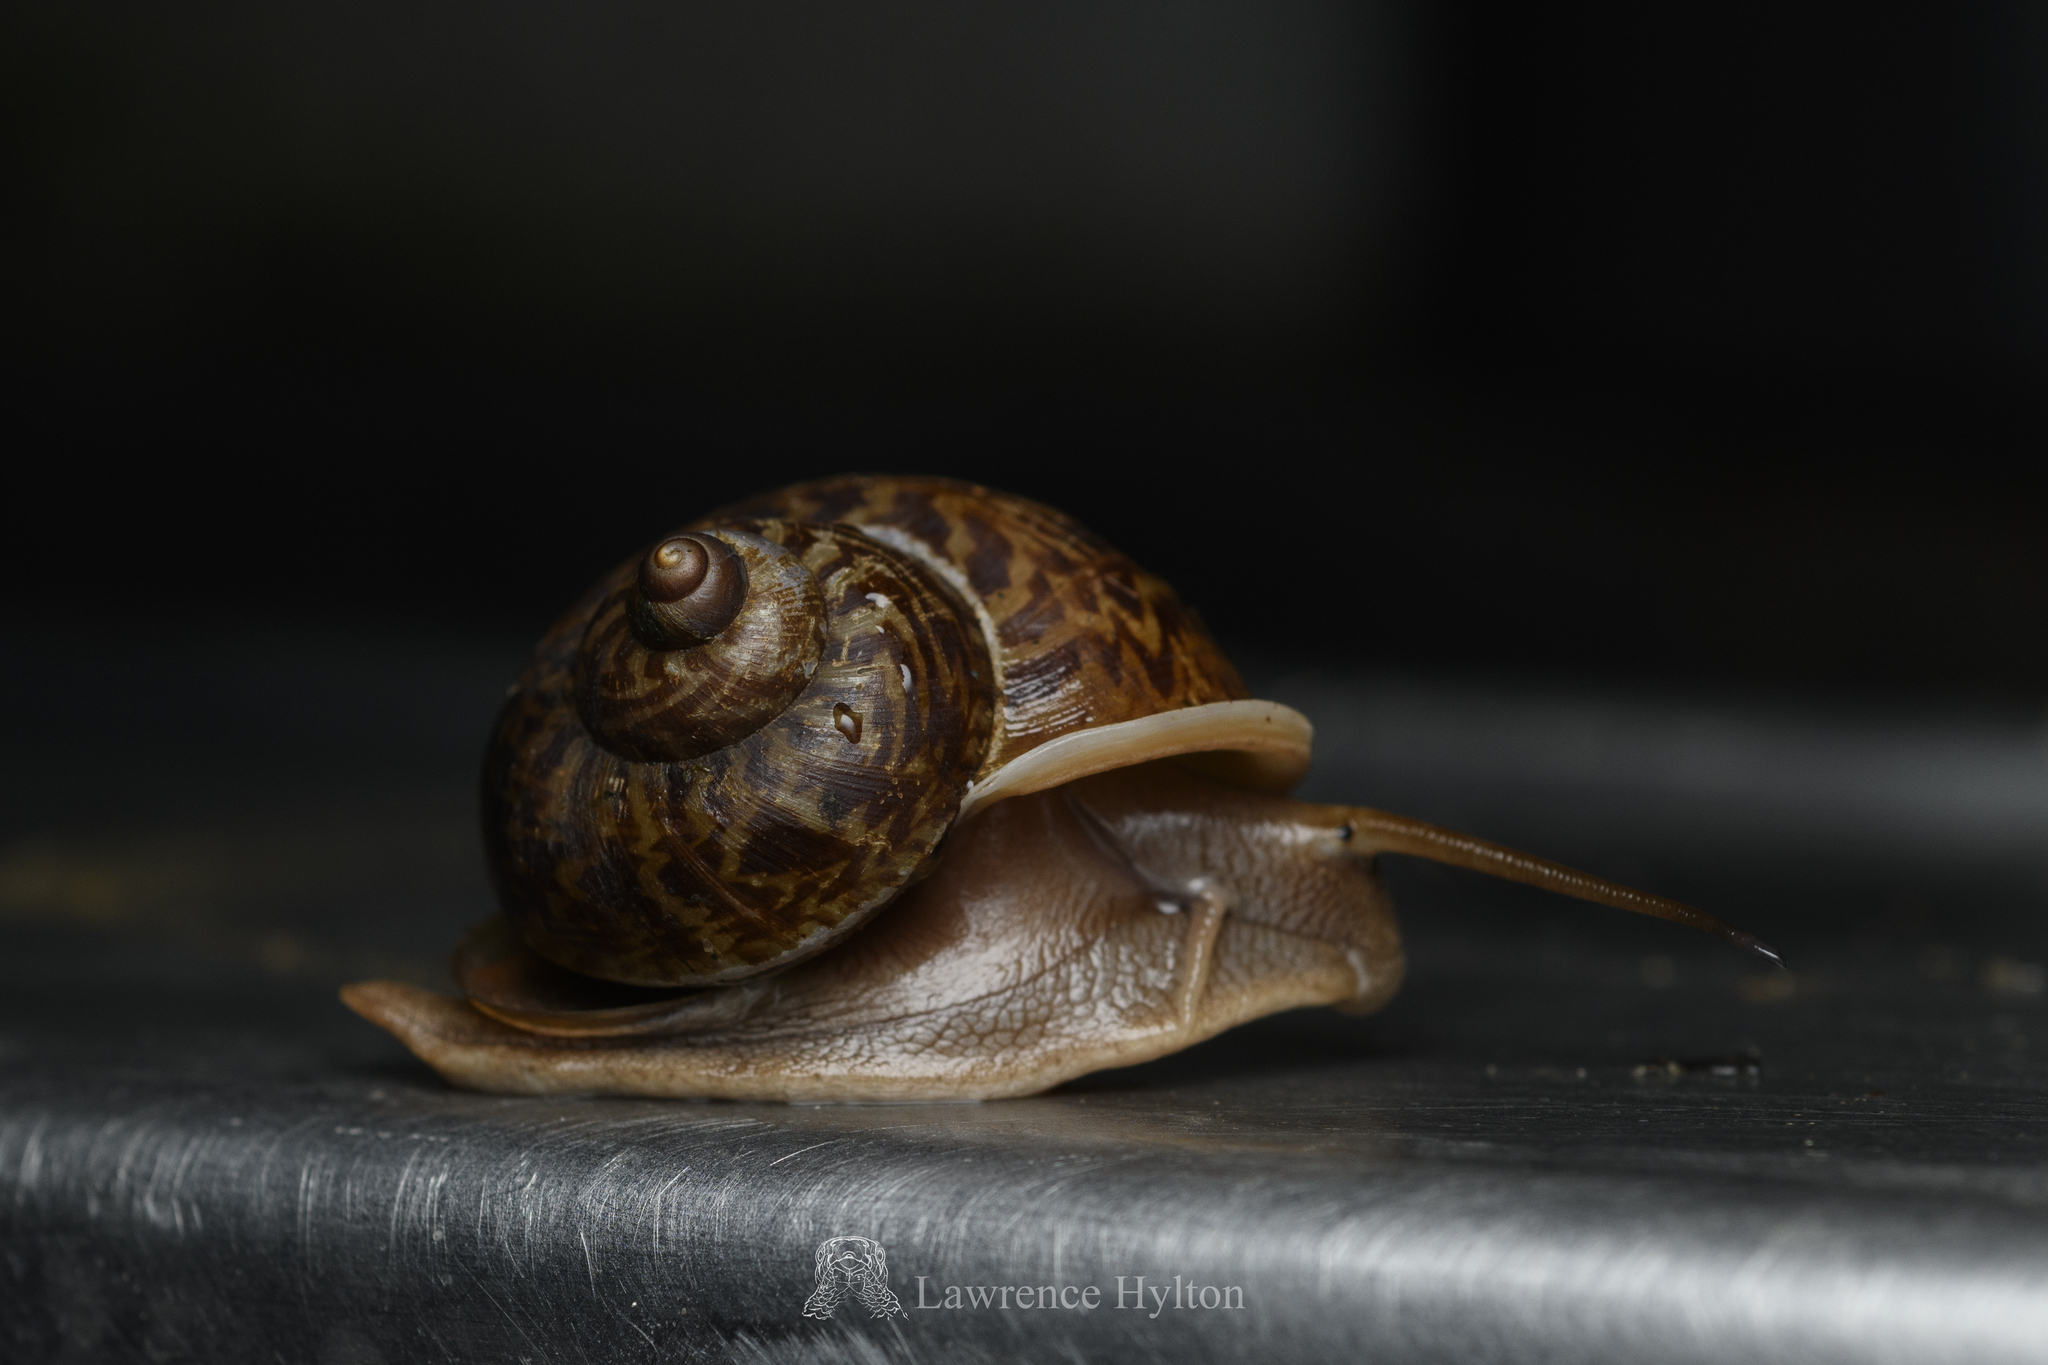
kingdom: Animalia
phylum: Mollusca
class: Gastropoda
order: Architaenioglossa
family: Cyclophoridae
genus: Cyclophorus
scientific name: Cyclophorus punctatus
